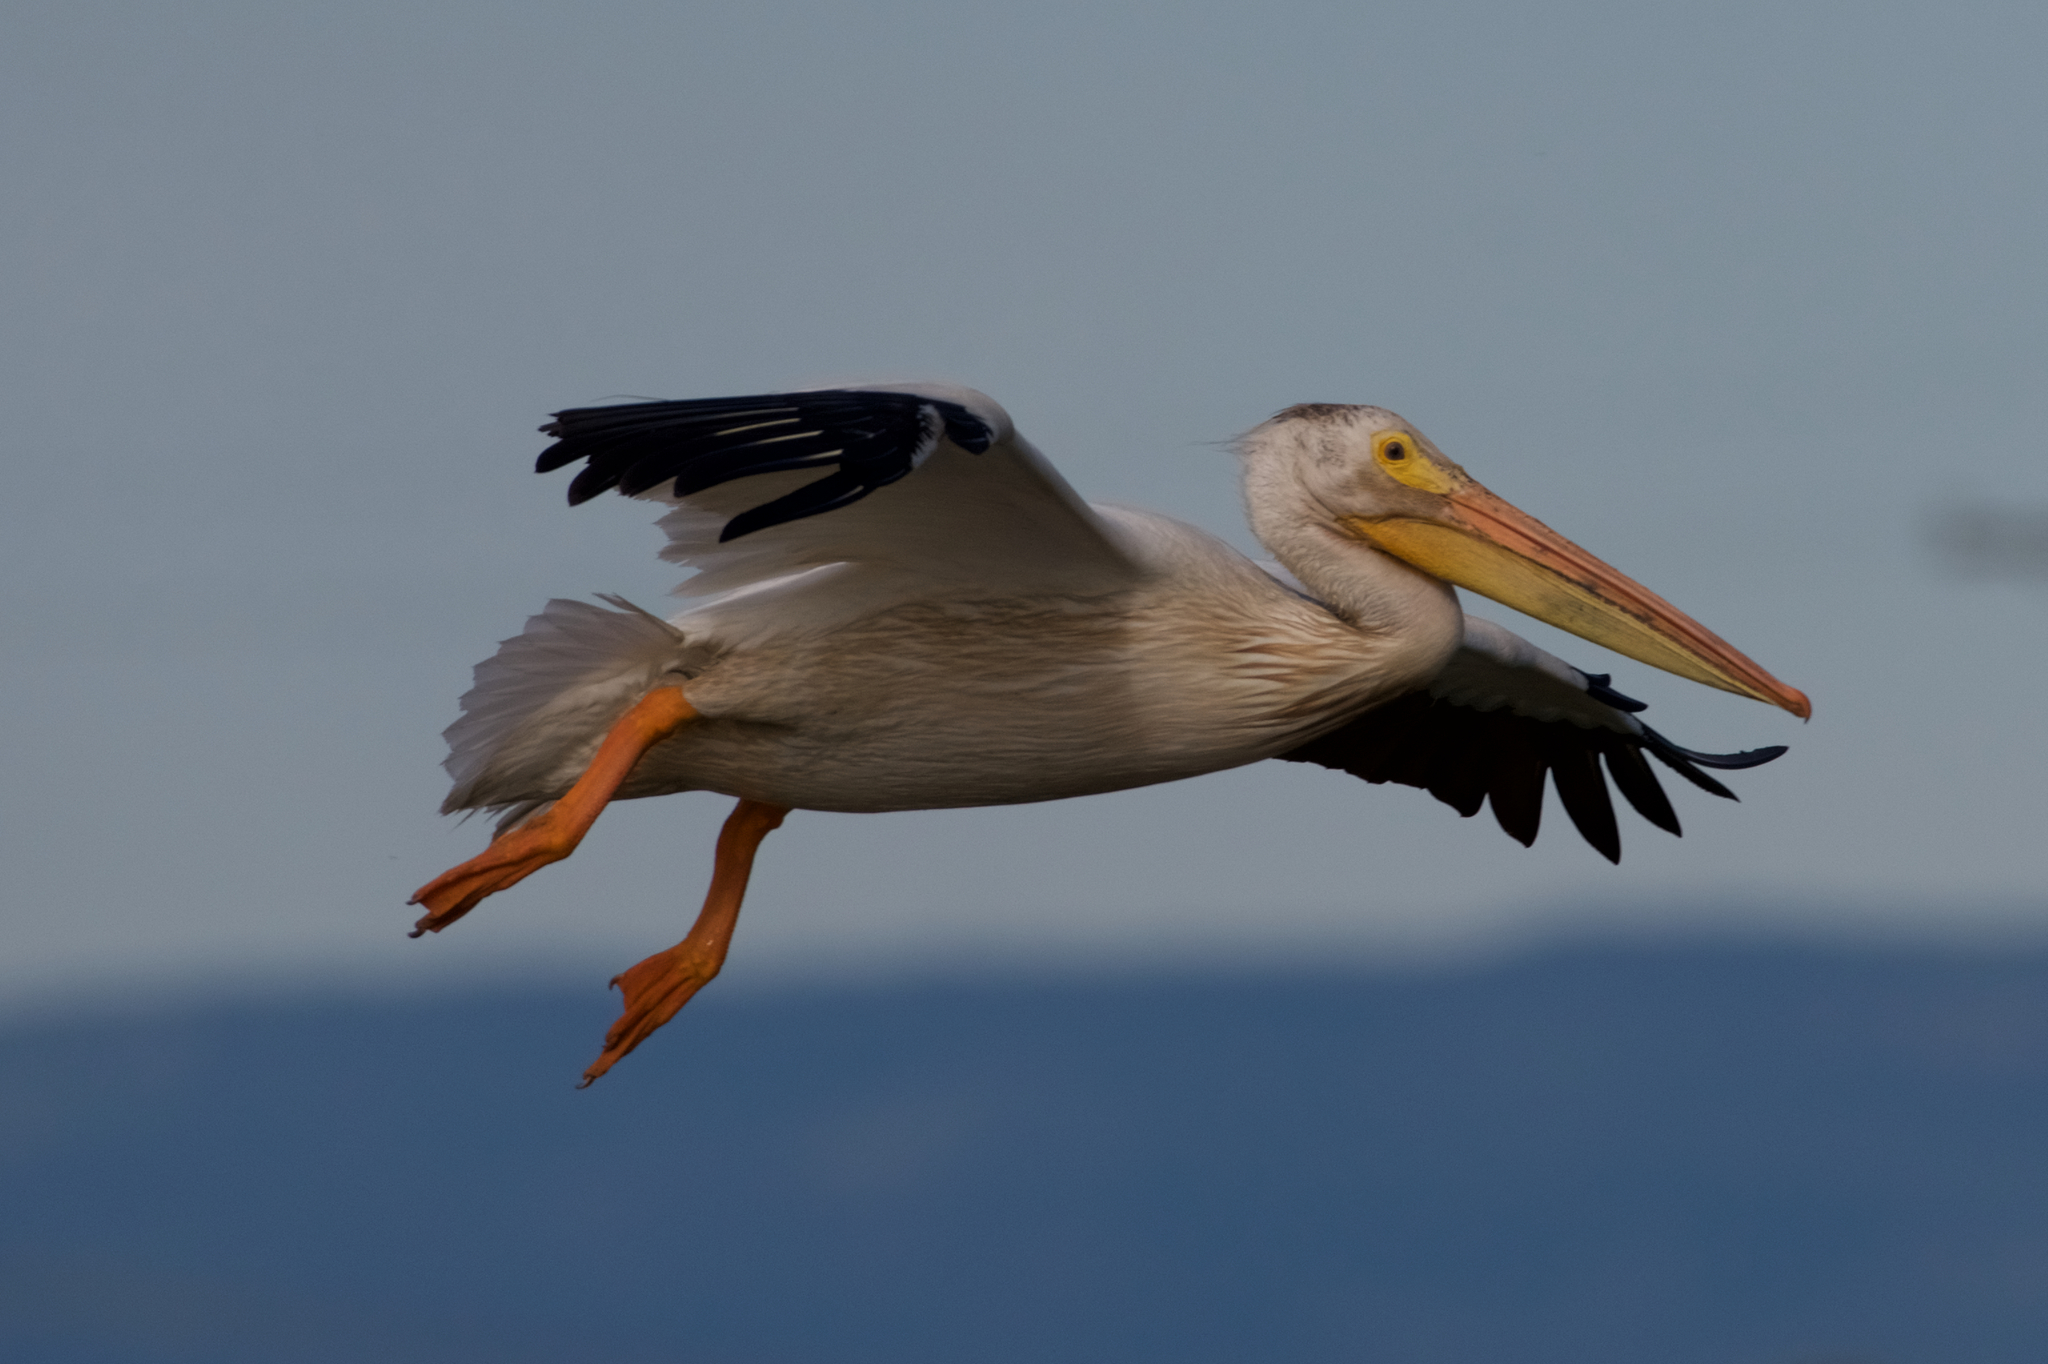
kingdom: Animalia
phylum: Chordata
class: Aves
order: Pelecaniformes
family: Pelecanidae
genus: Pelecanus
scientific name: Pelecanus erythrorhynchos
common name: American white pelican
